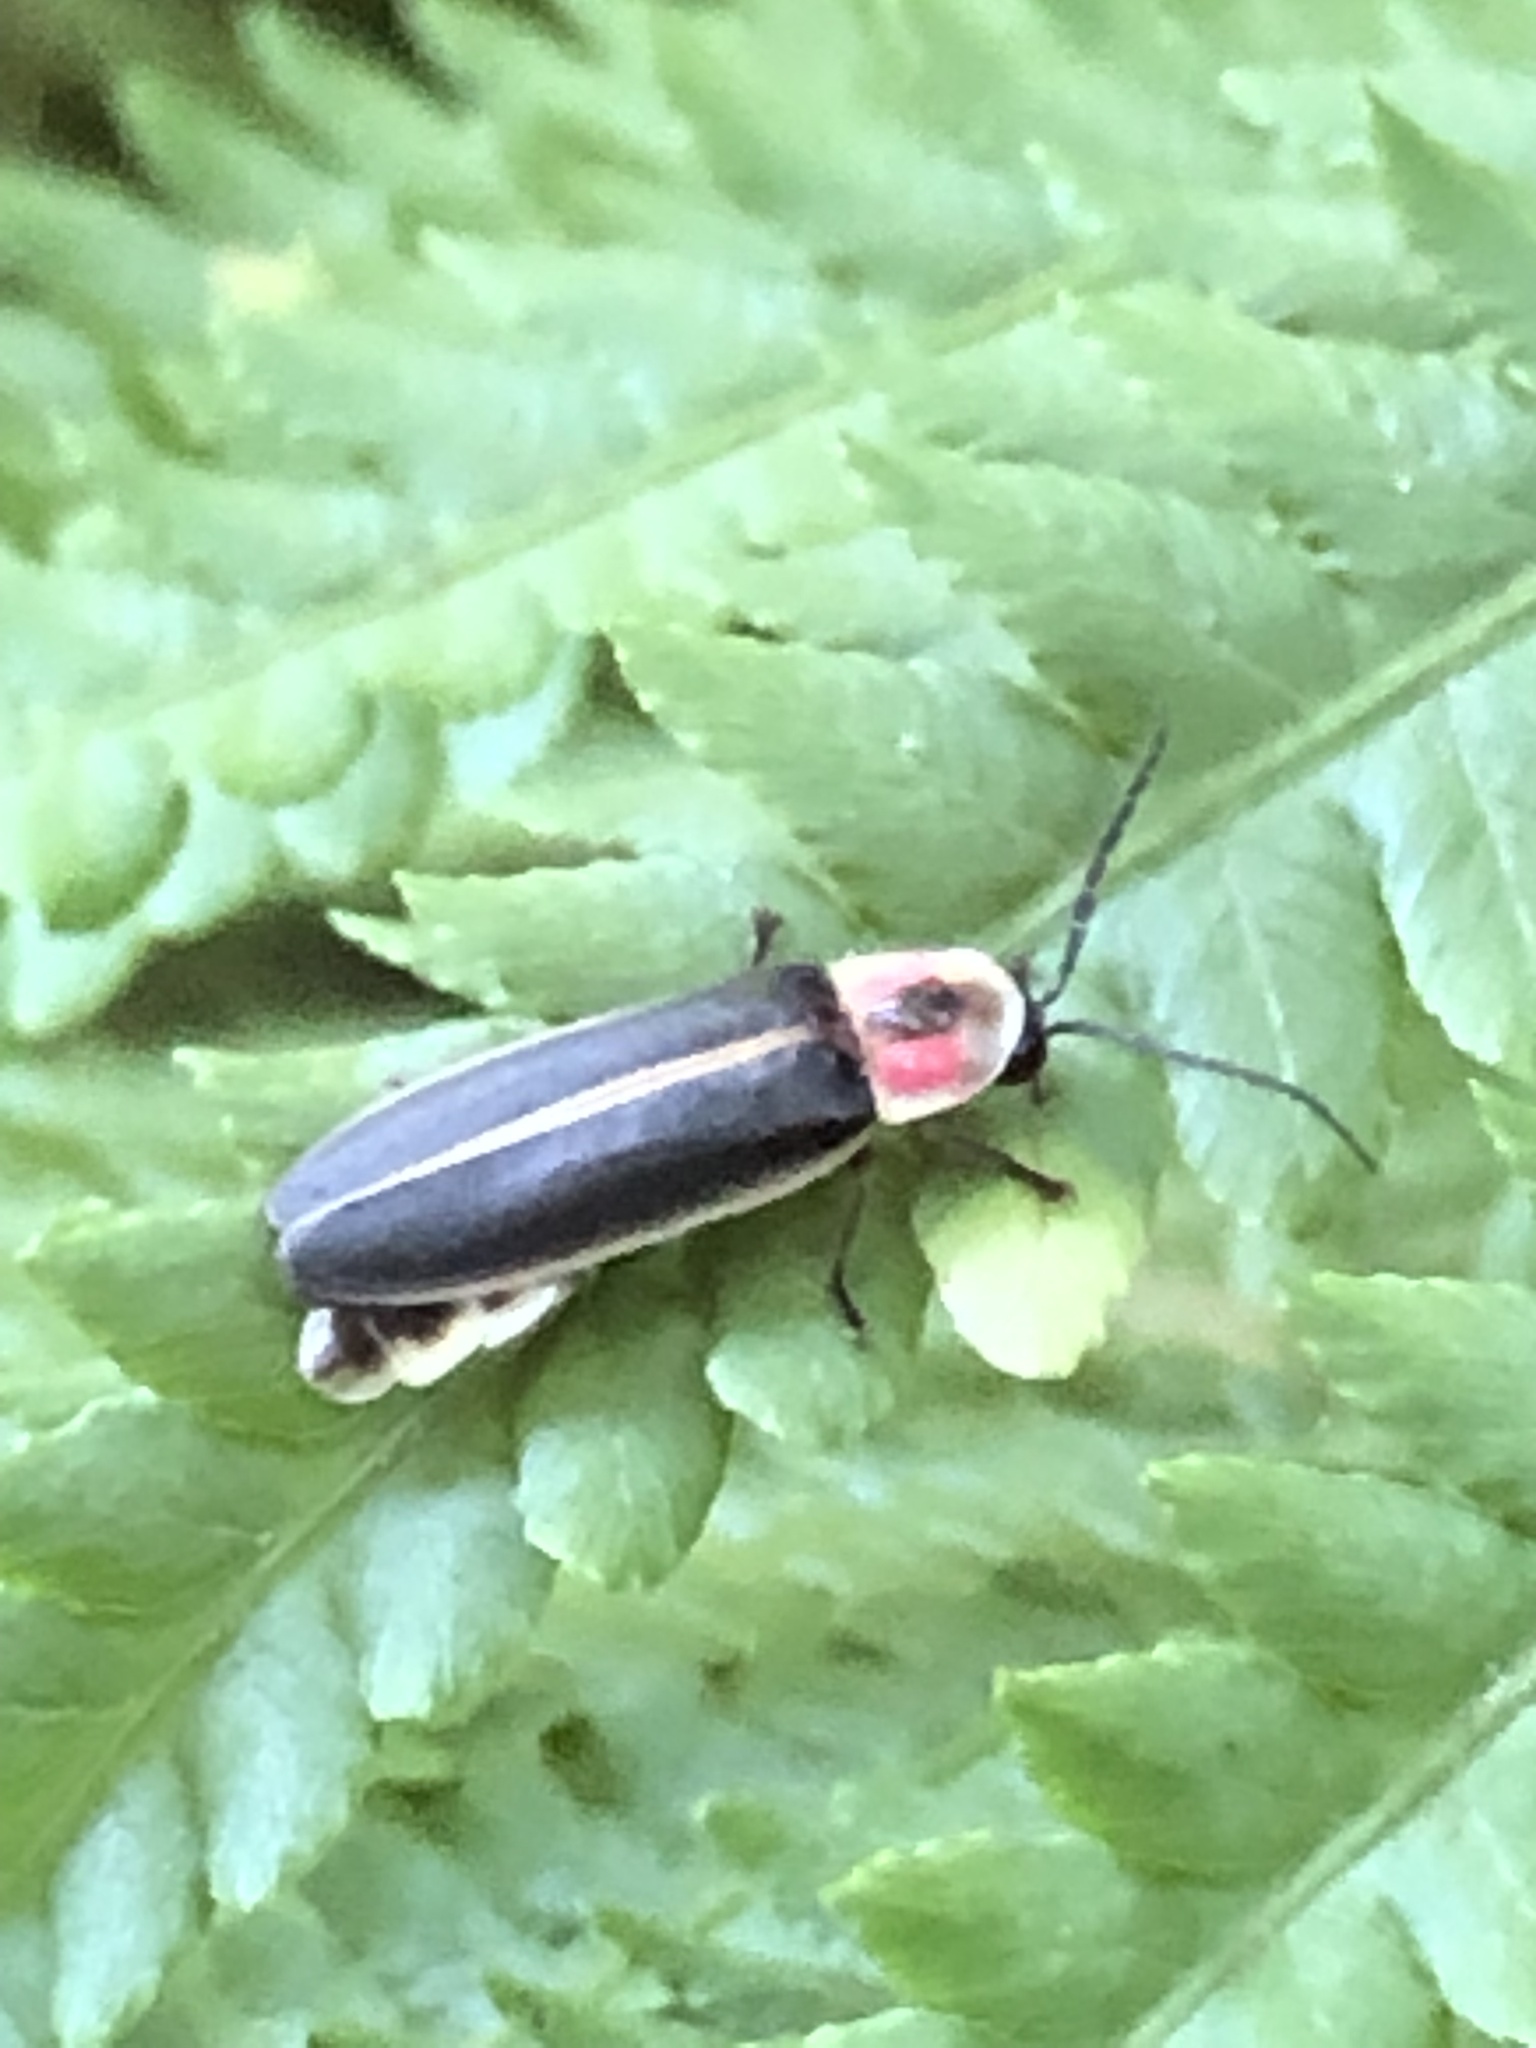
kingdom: Animalia
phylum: Arthropoda
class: Insecta
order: Coleoptera
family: Lampyridae
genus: Photinus
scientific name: Photinus pyralis
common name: Big dipper firefly
